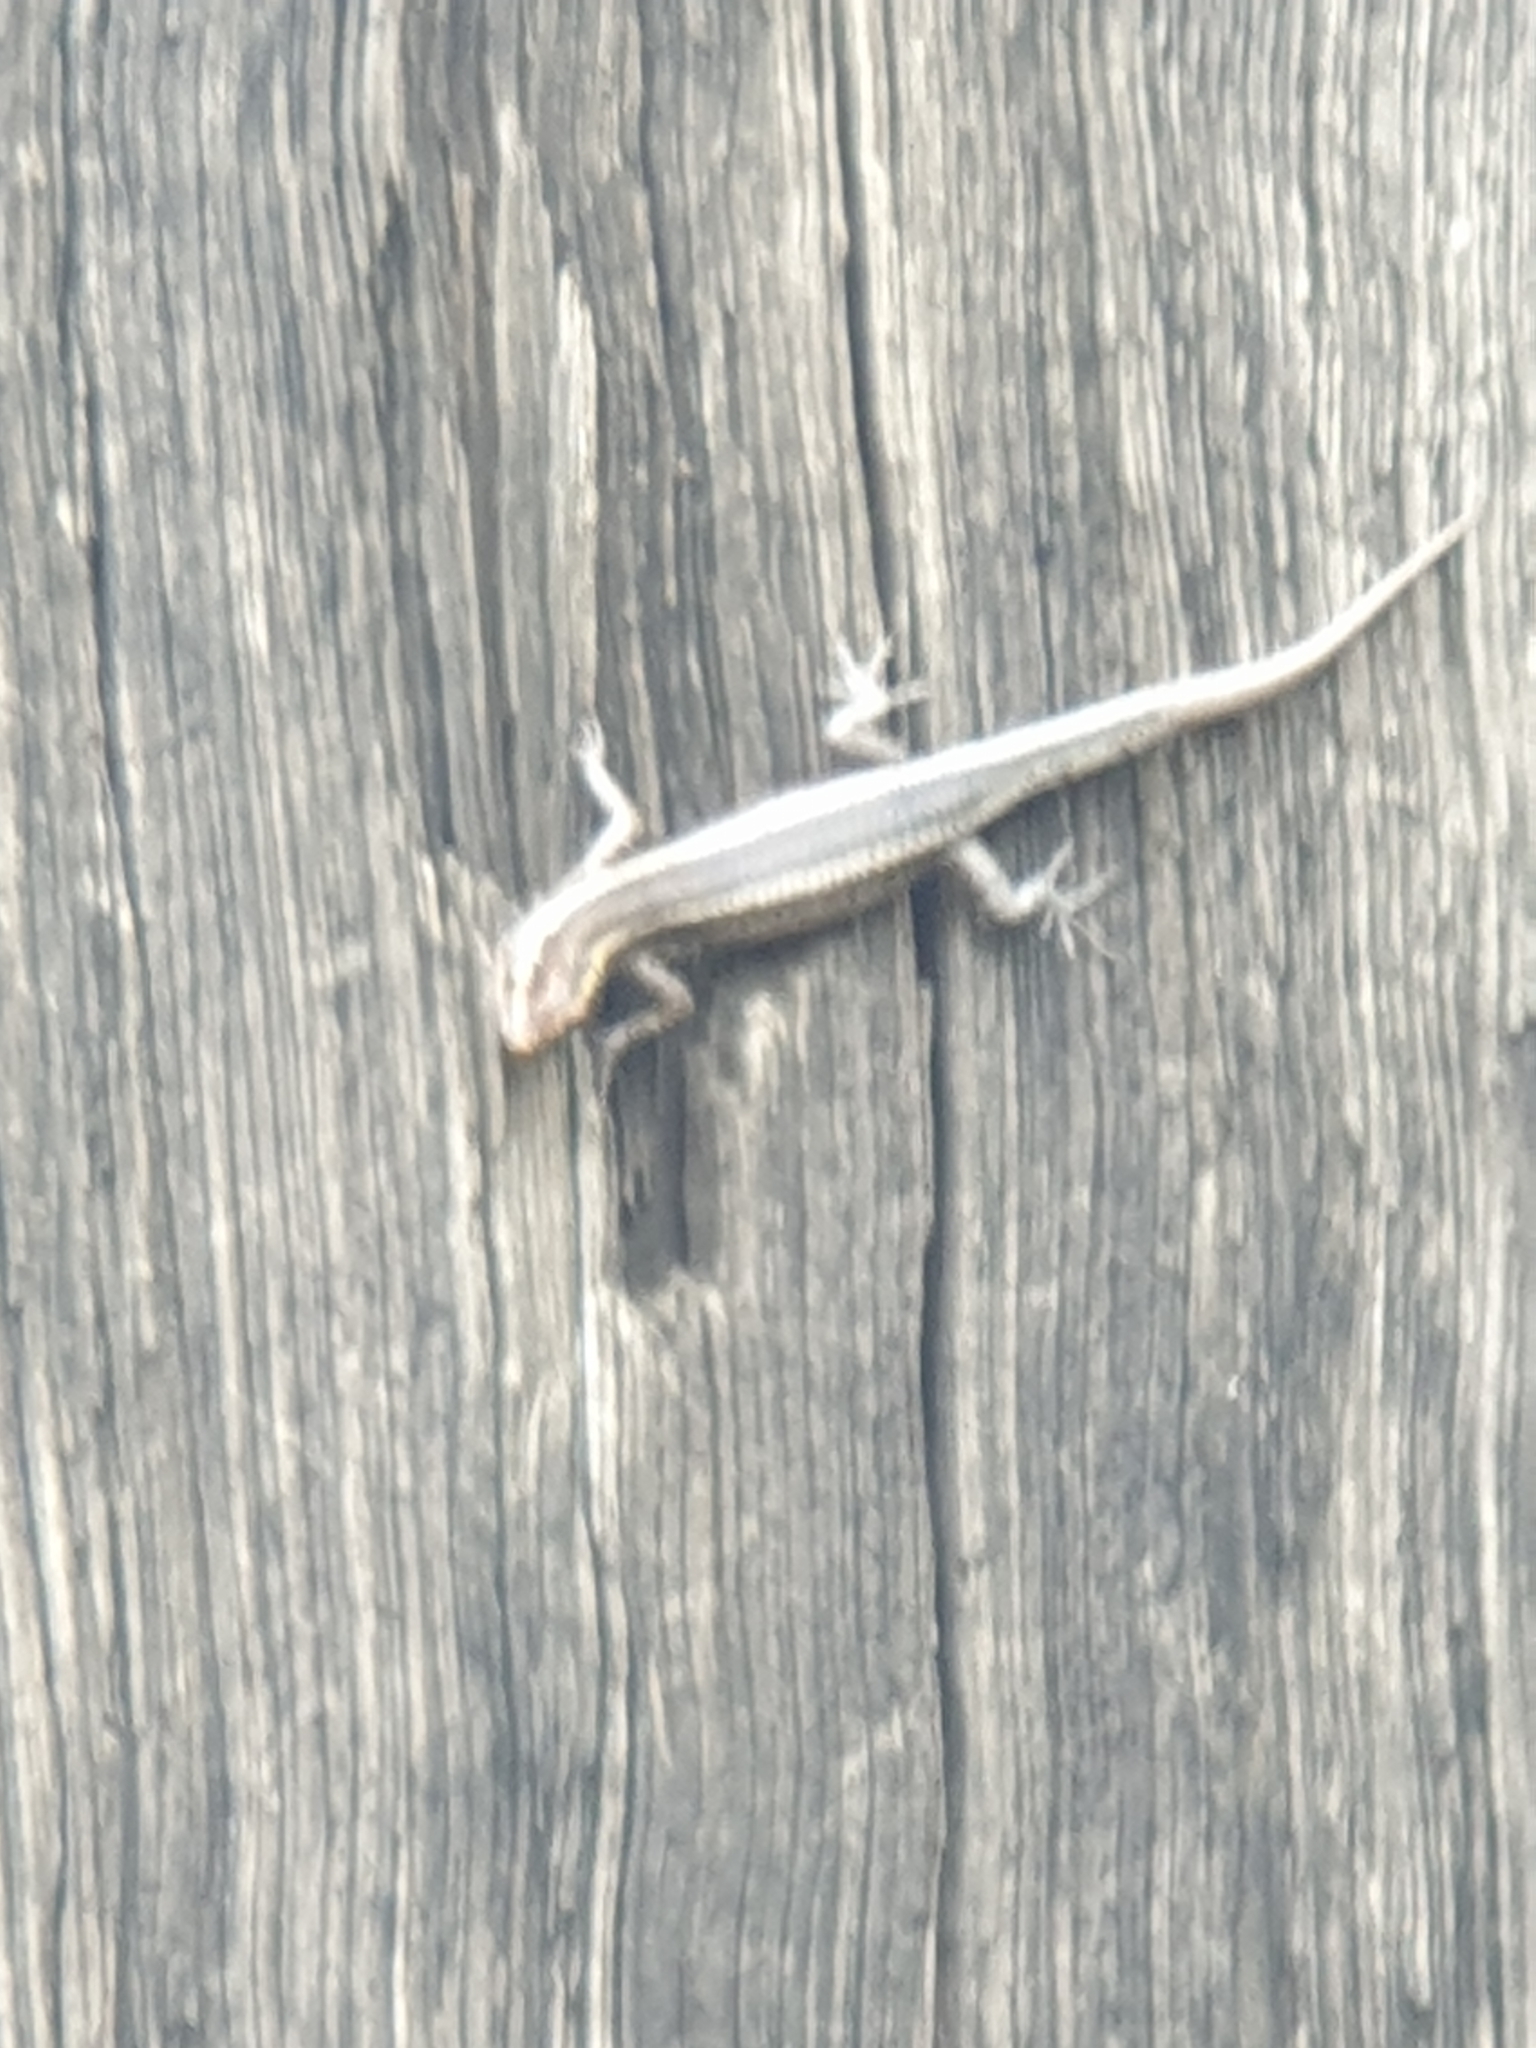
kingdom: Animalia
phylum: Chordata
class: Squamata
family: Scincidae
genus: Cryptoblepharus
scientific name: Cryptoblepharus pulcher
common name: Elegant snake-eyed skink
